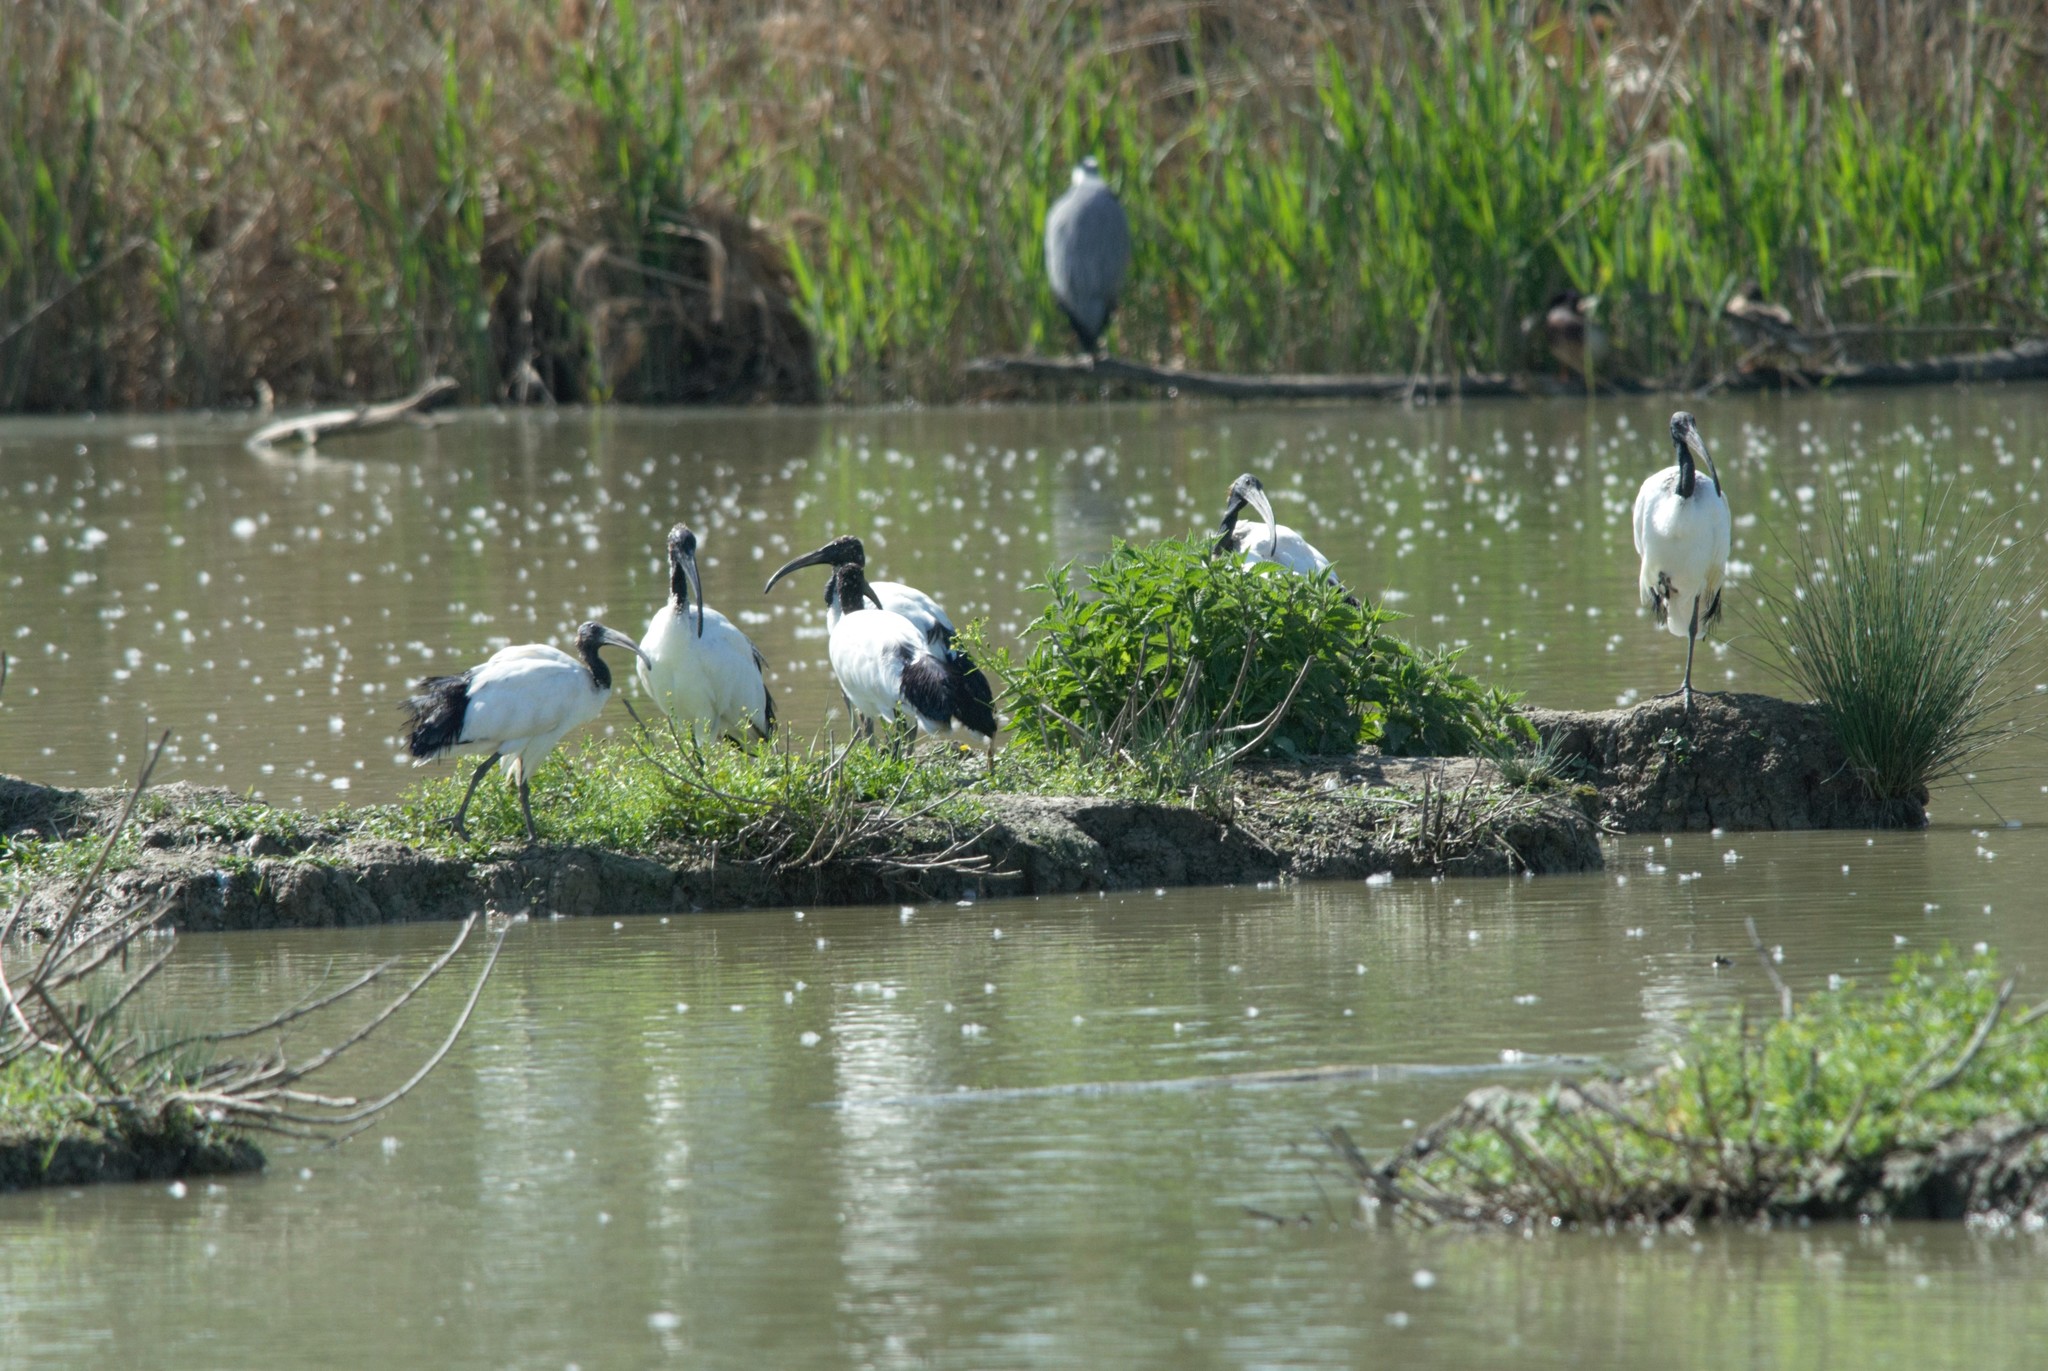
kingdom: Animalia
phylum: Chordata
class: Aves
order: Pelecaniformes
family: Threskiornithidae
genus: Threskiornis
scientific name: Threskiornis aethiopicus
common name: Sacred ibis
